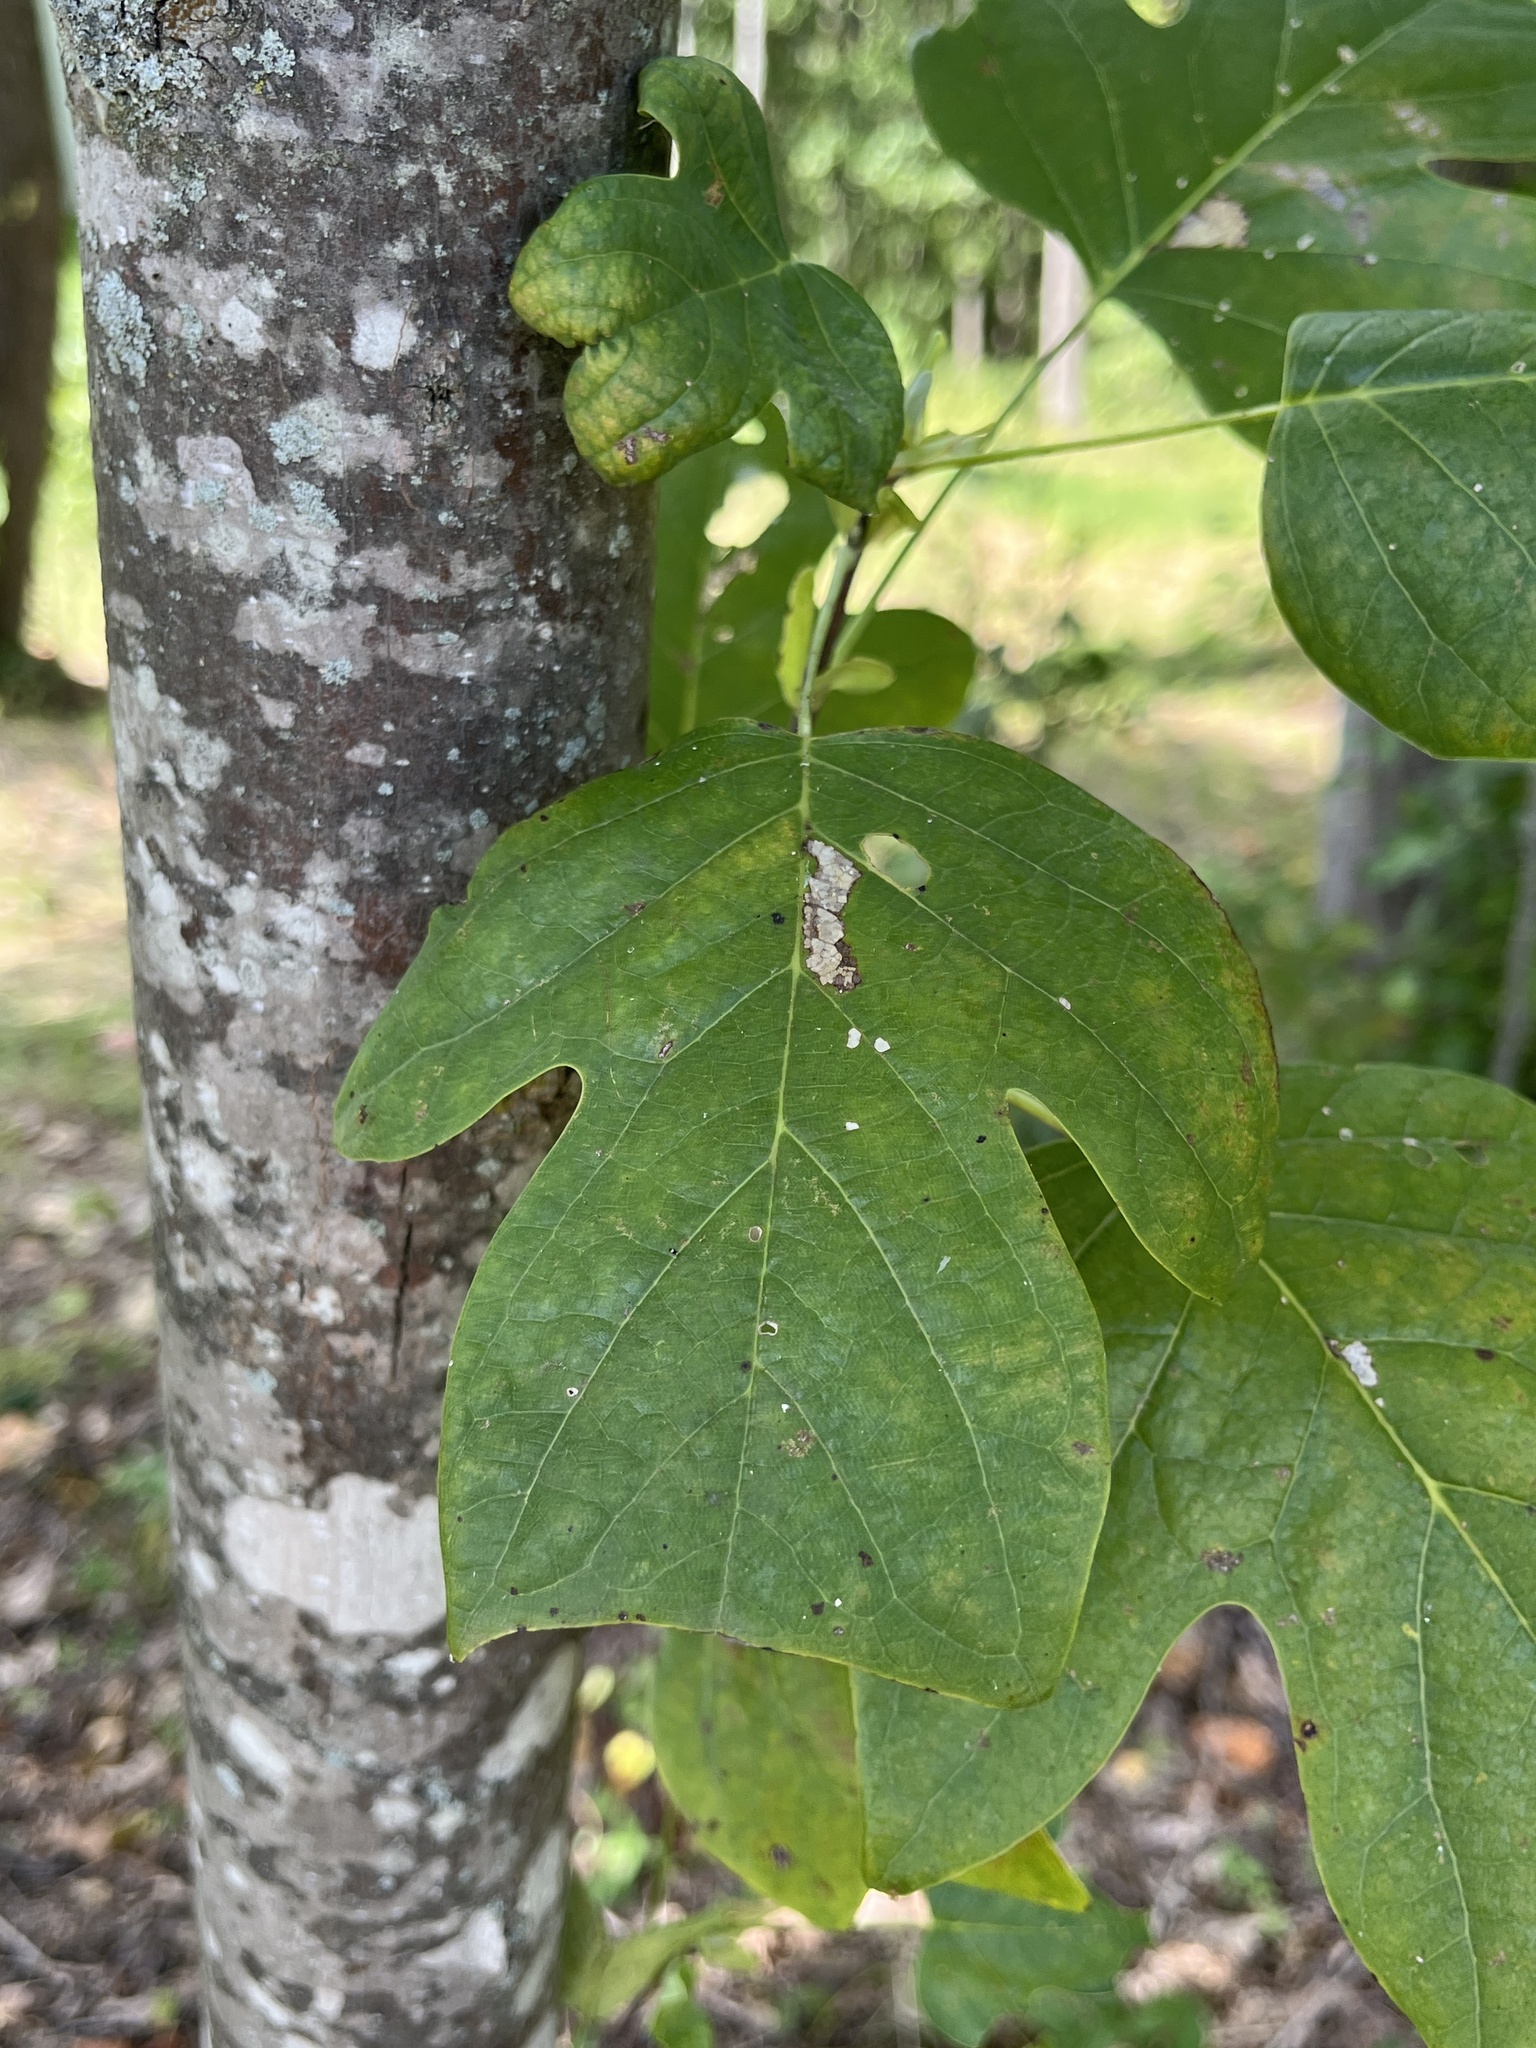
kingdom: Plantae
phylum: Tracheophyta
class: Magnoliopsida
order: Magnoliales
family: Magnoliaceae
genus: Liriodendron
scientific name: Liriodendron tulipifera
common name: Tulip tree
